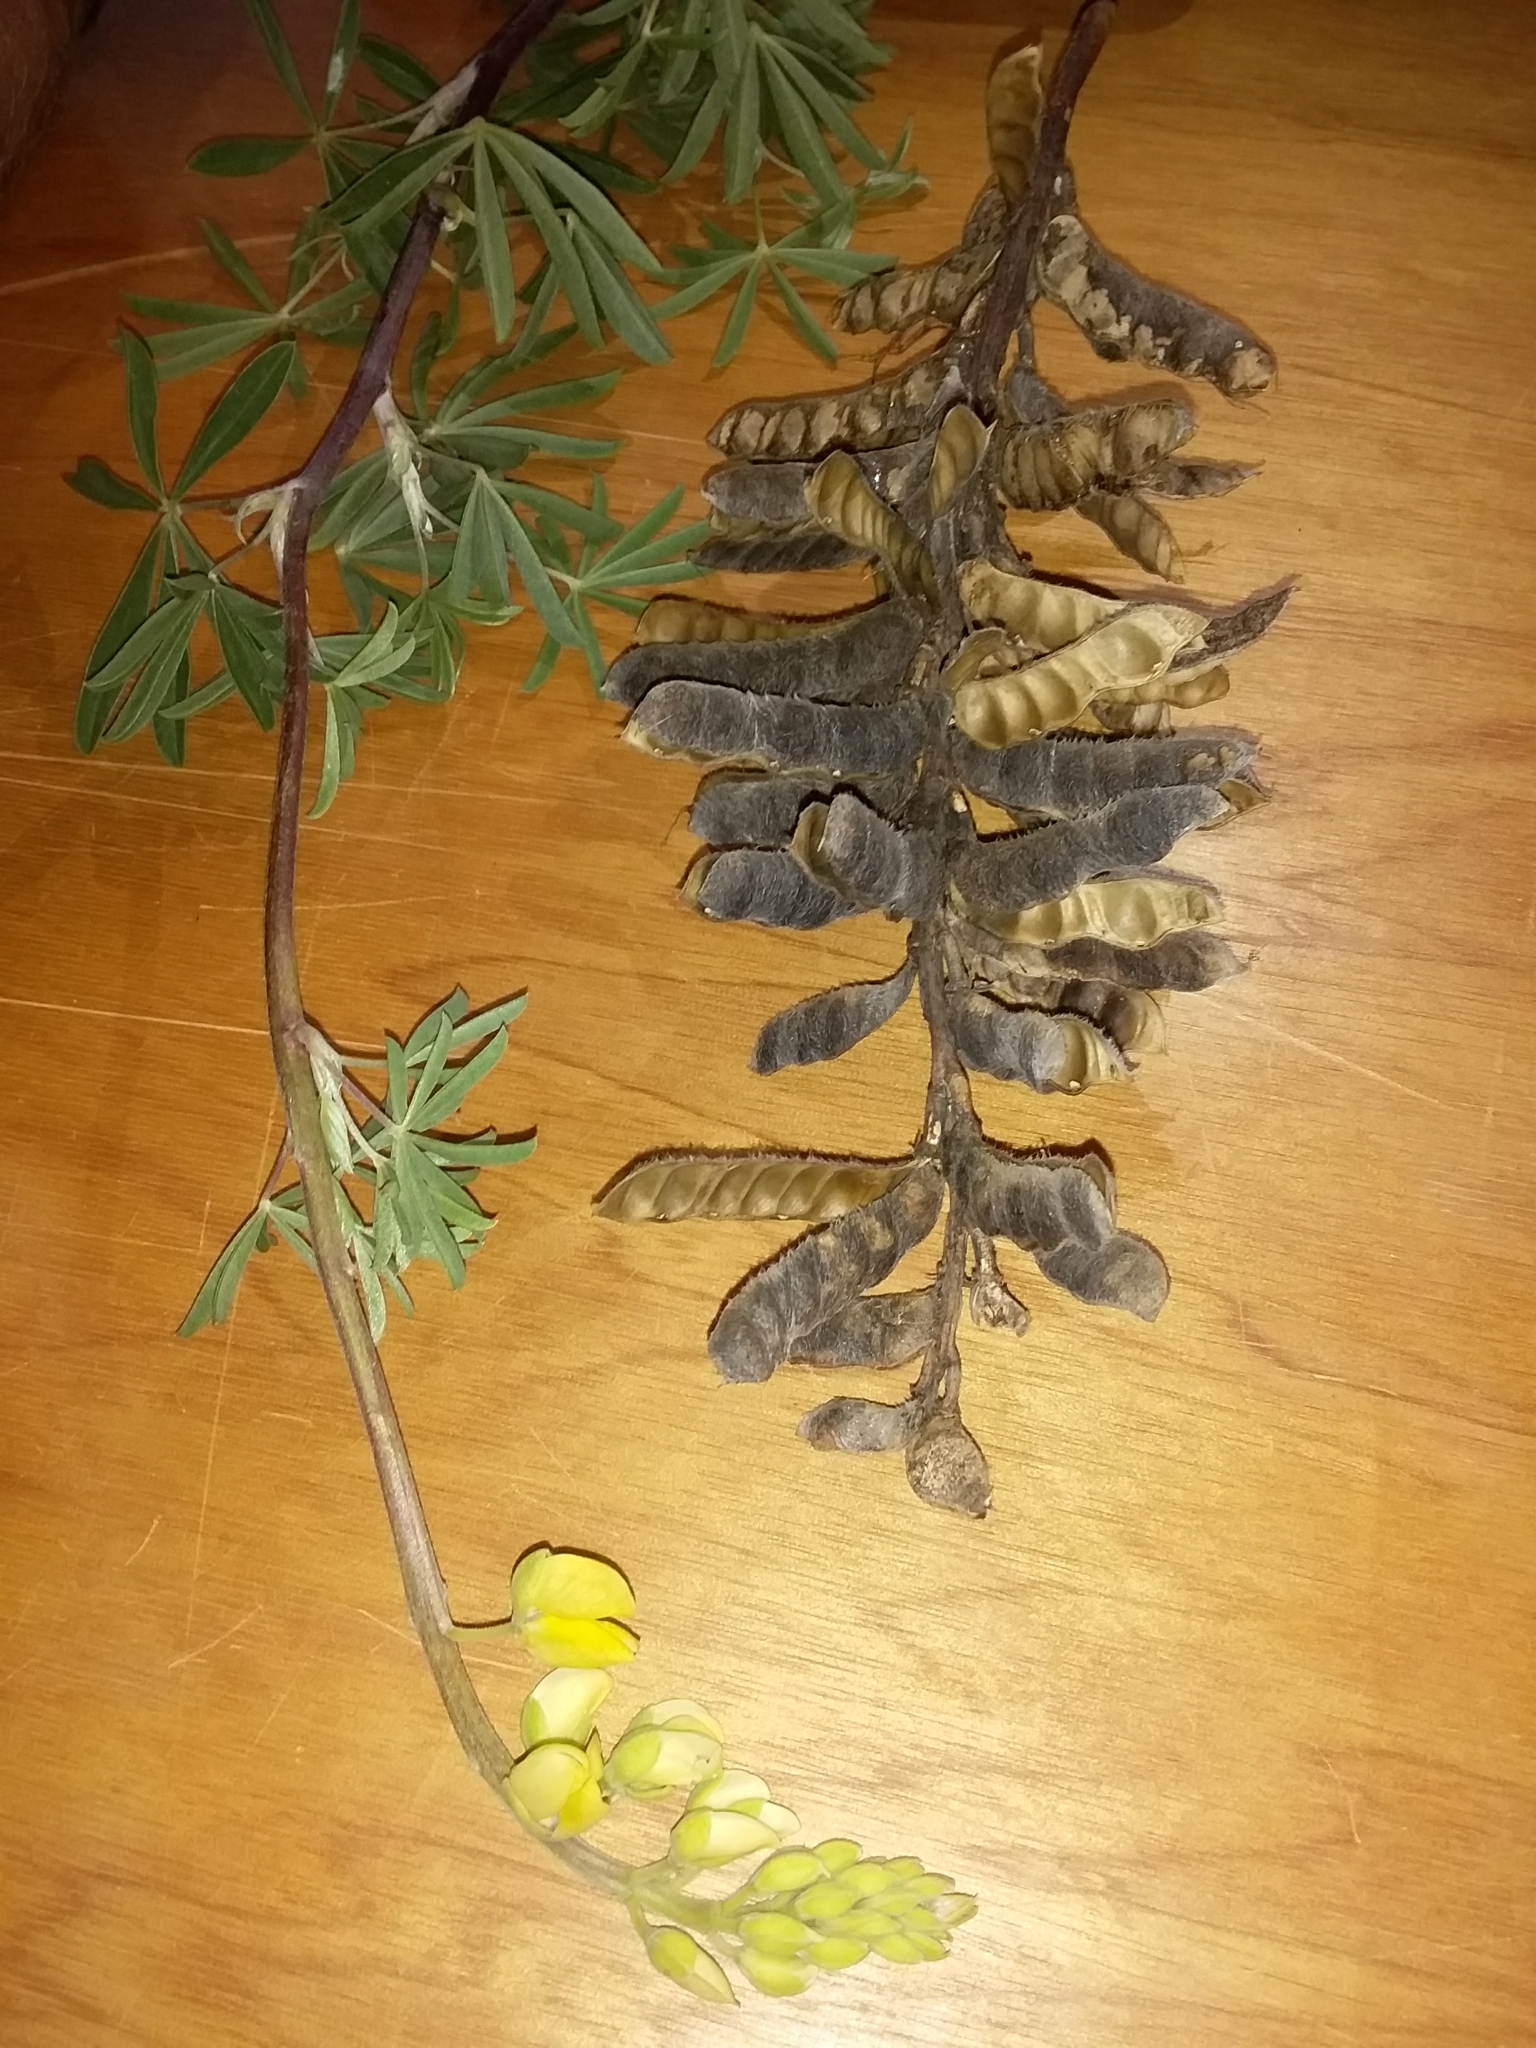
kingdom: Plantae
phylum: Tracheophyta
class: Magnoliopsida
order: Fabales
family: Fabaceae
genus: Lupinus
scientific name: Lupinus arboreus
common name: Yellow bush lupine
